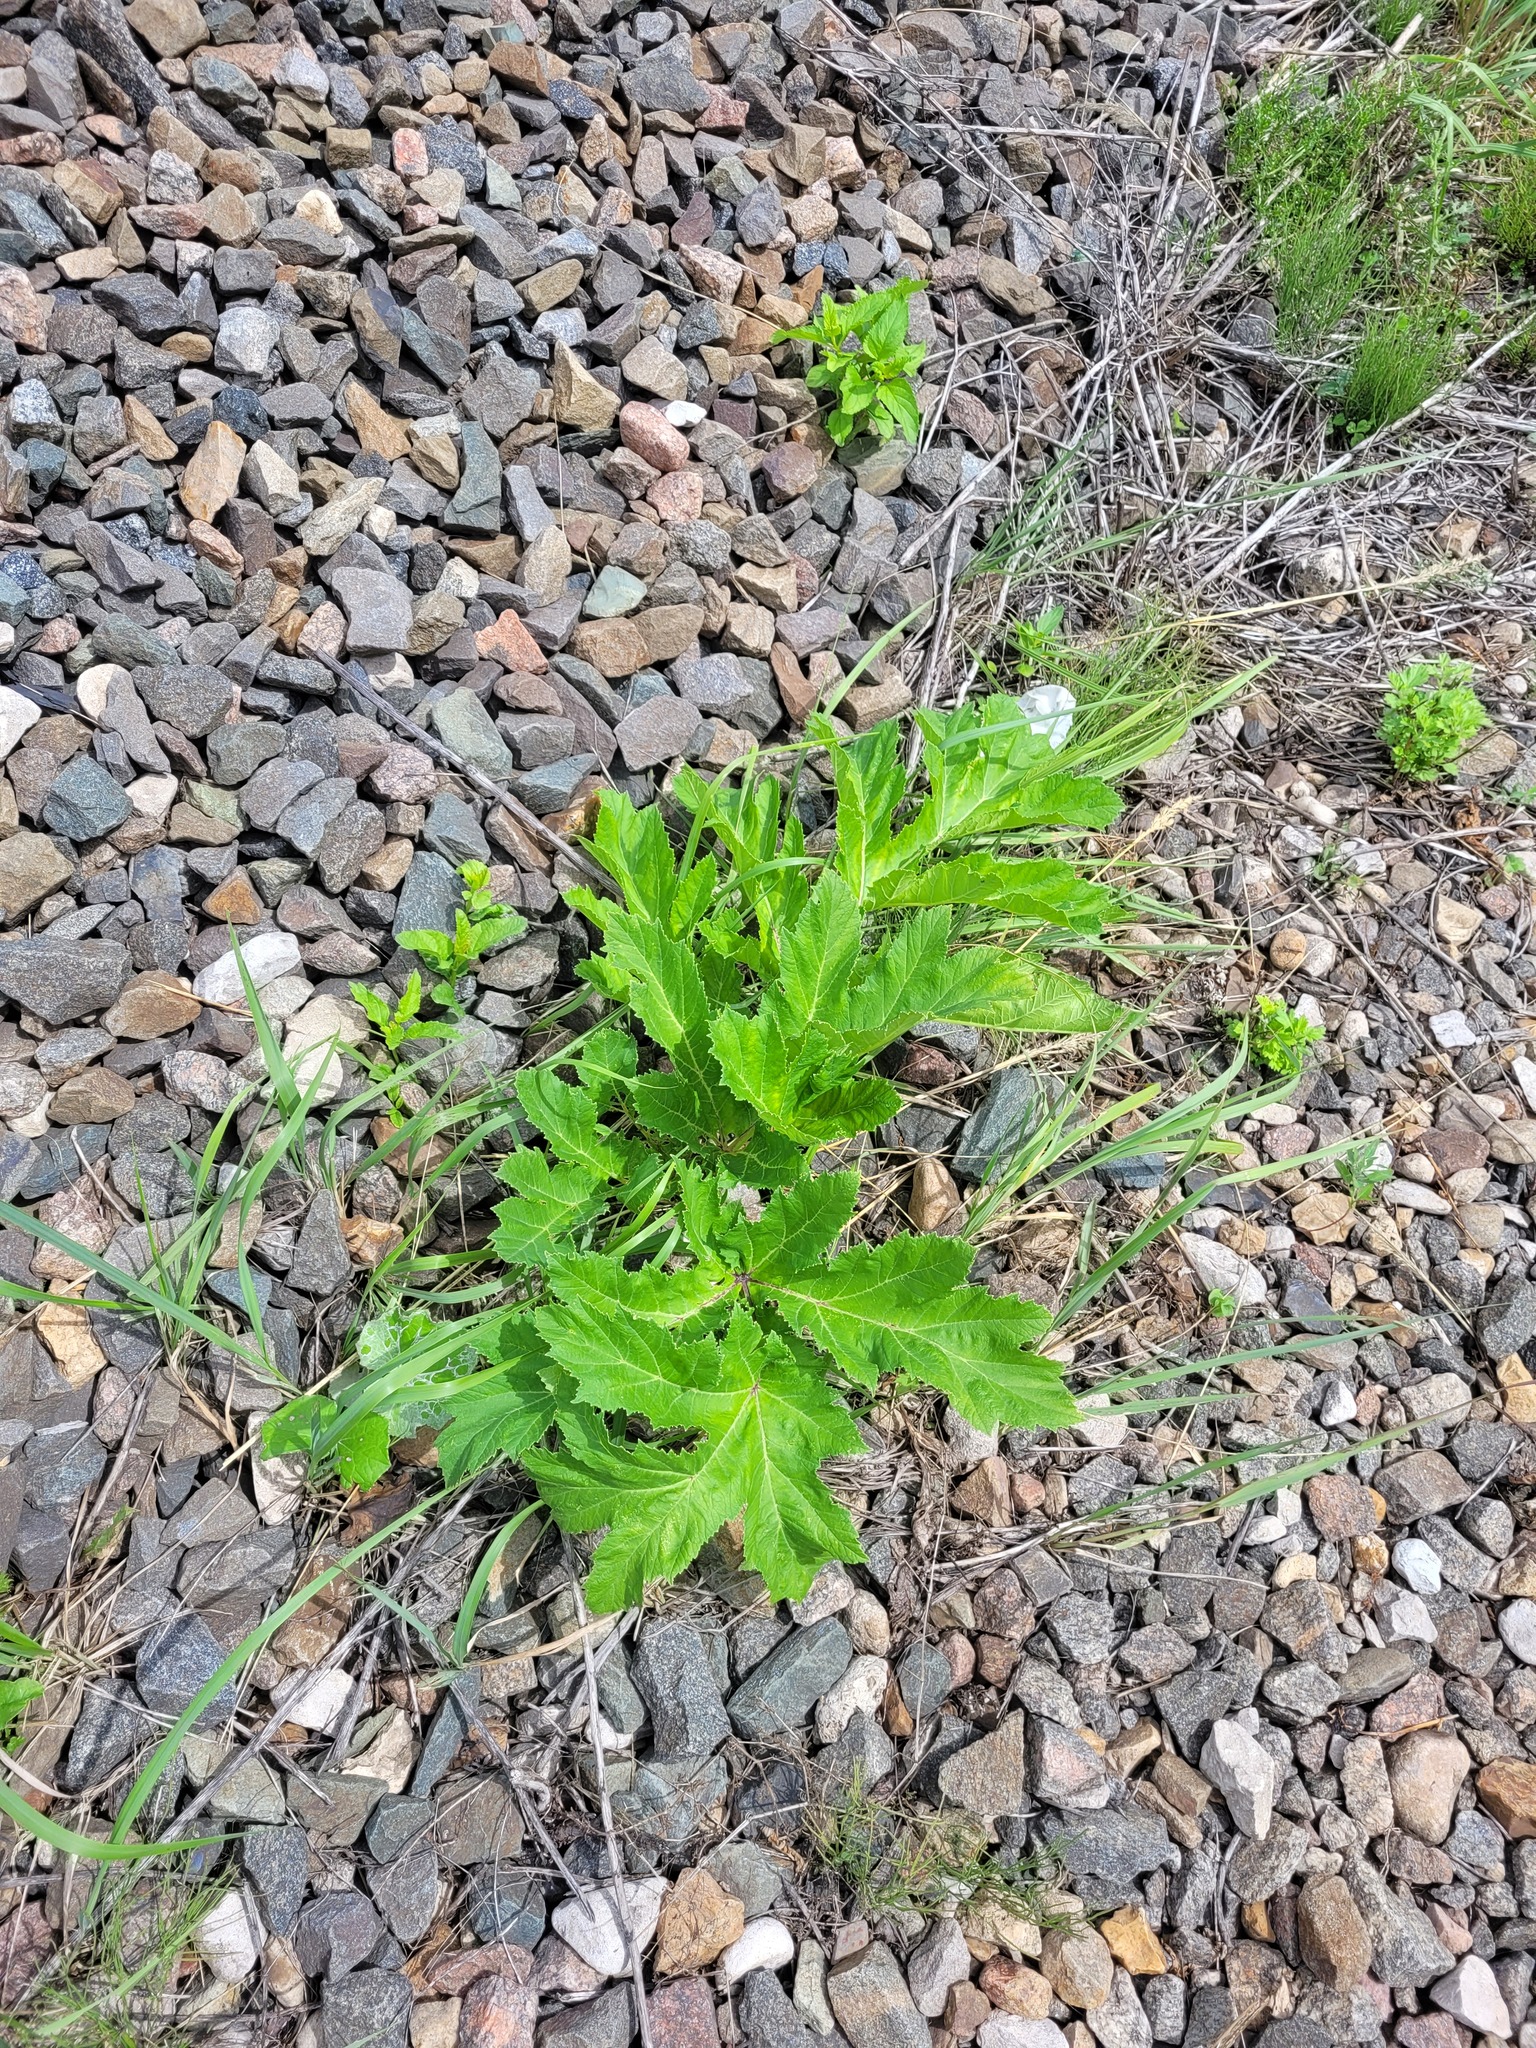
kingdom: Plantae
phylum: Tracheophyta
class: Magnoliopsida
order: Apiales
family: Apiaceae
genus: Heracleum
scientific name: Heracleum sosnowskyi
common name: Sosnowsky's hogweed
